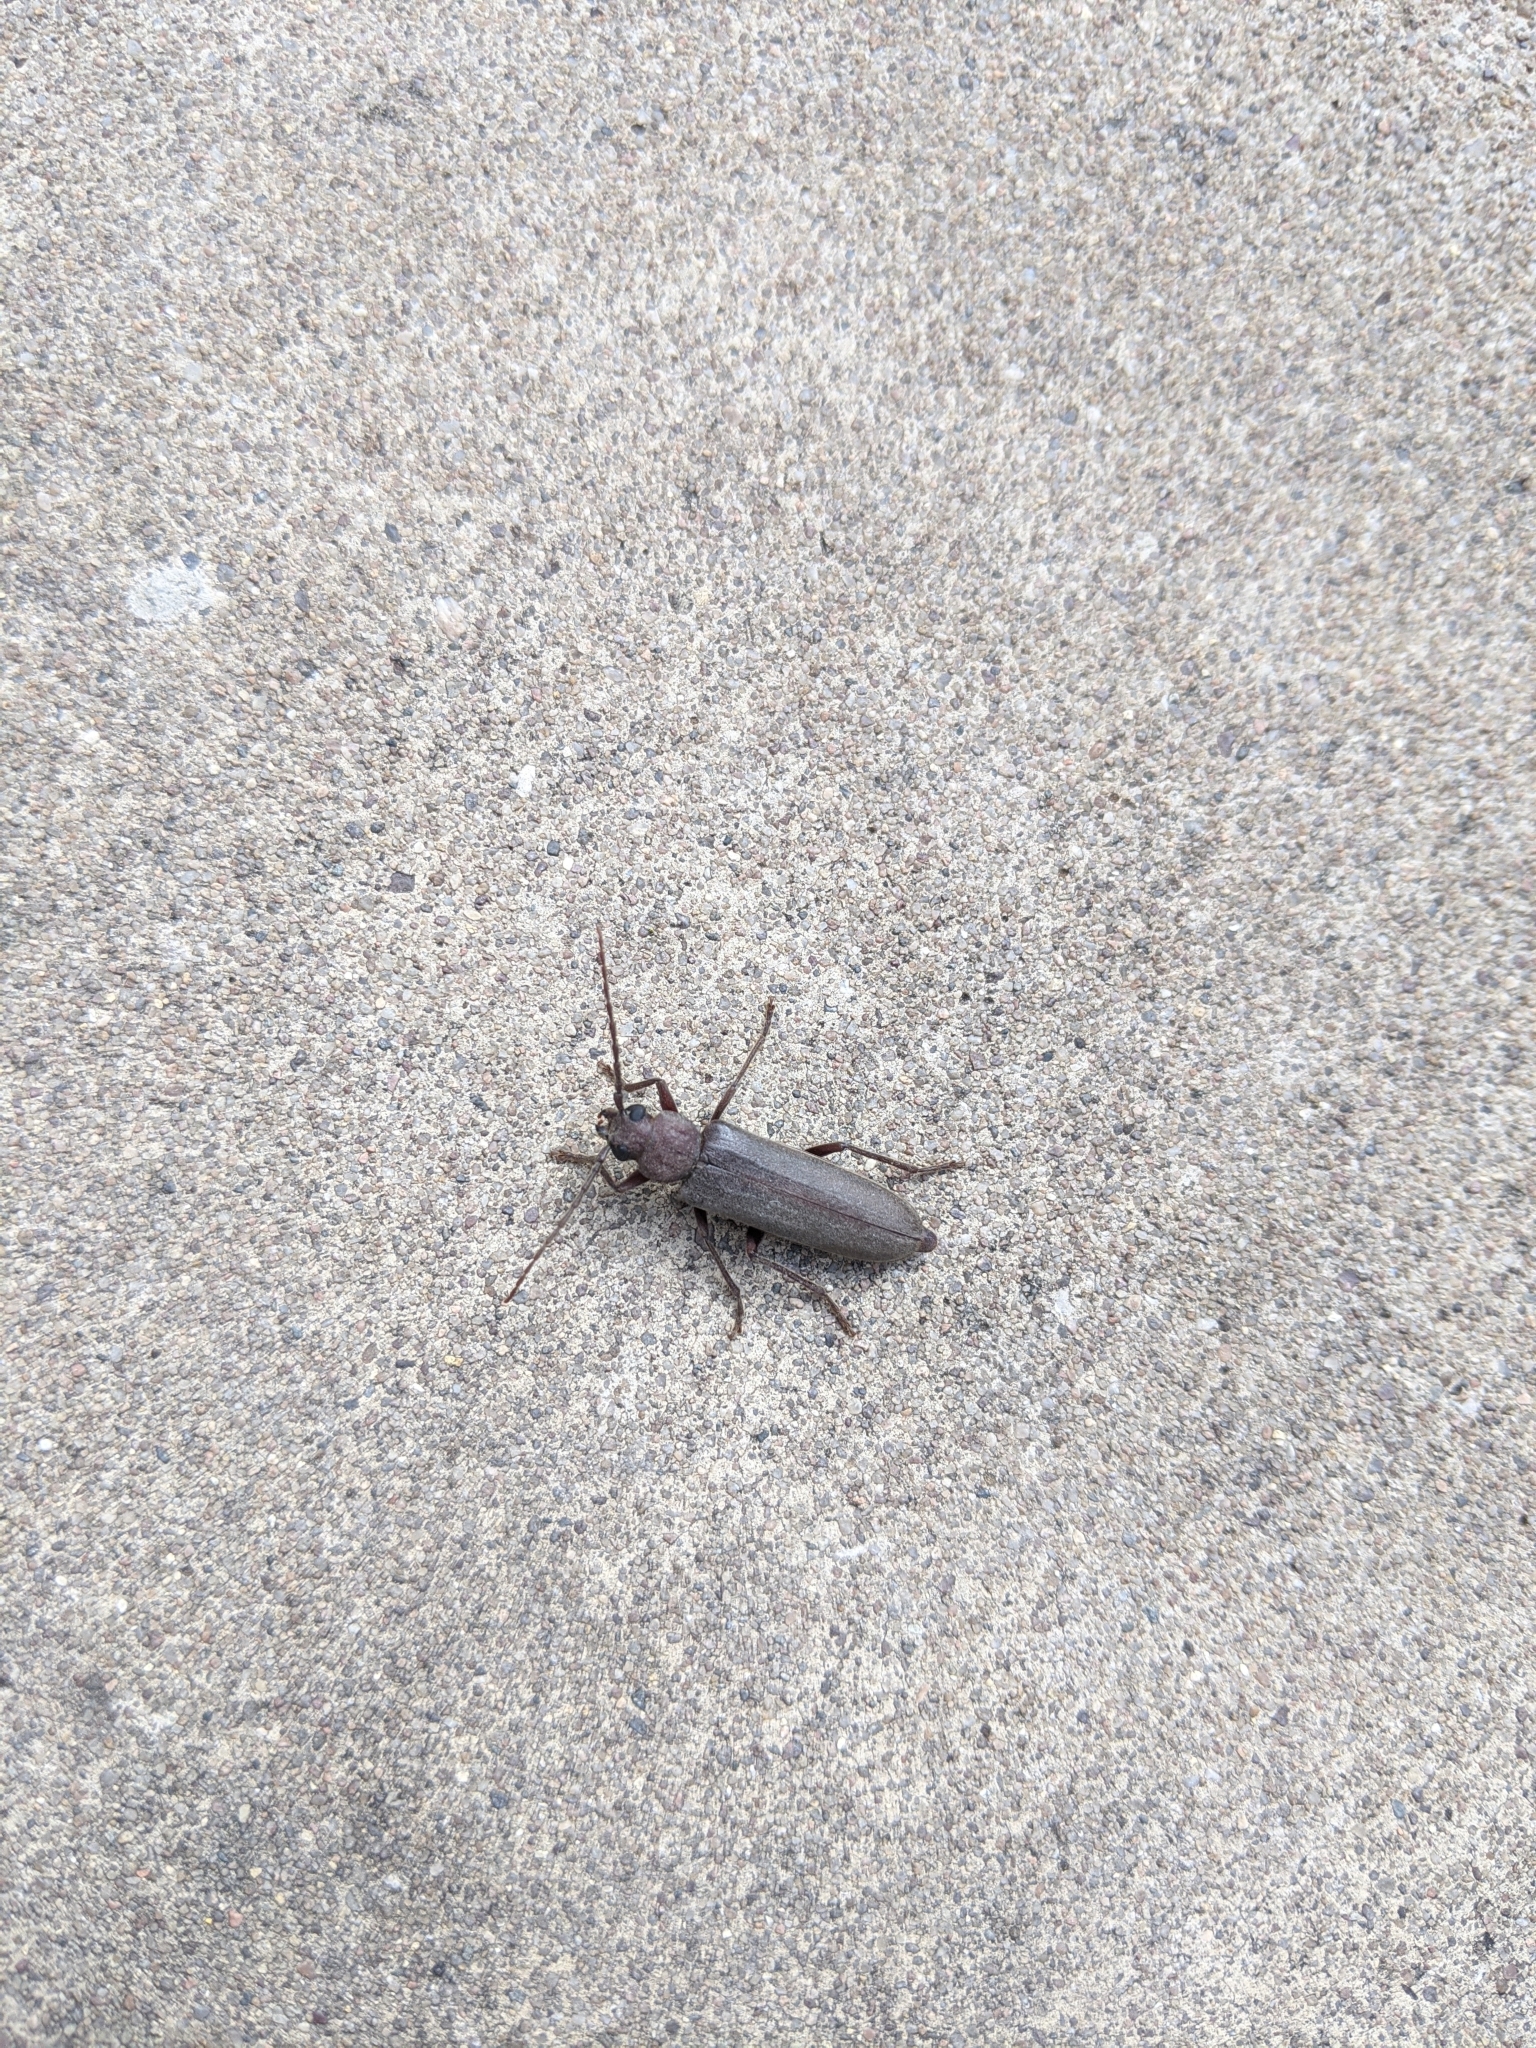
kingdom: Animalia
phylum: Arthropoda
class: Insecta
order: Coleoptera
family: Cerambycidae
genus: Arhopalus
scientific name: Arhopalus rusticus
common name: Rust pine borer
